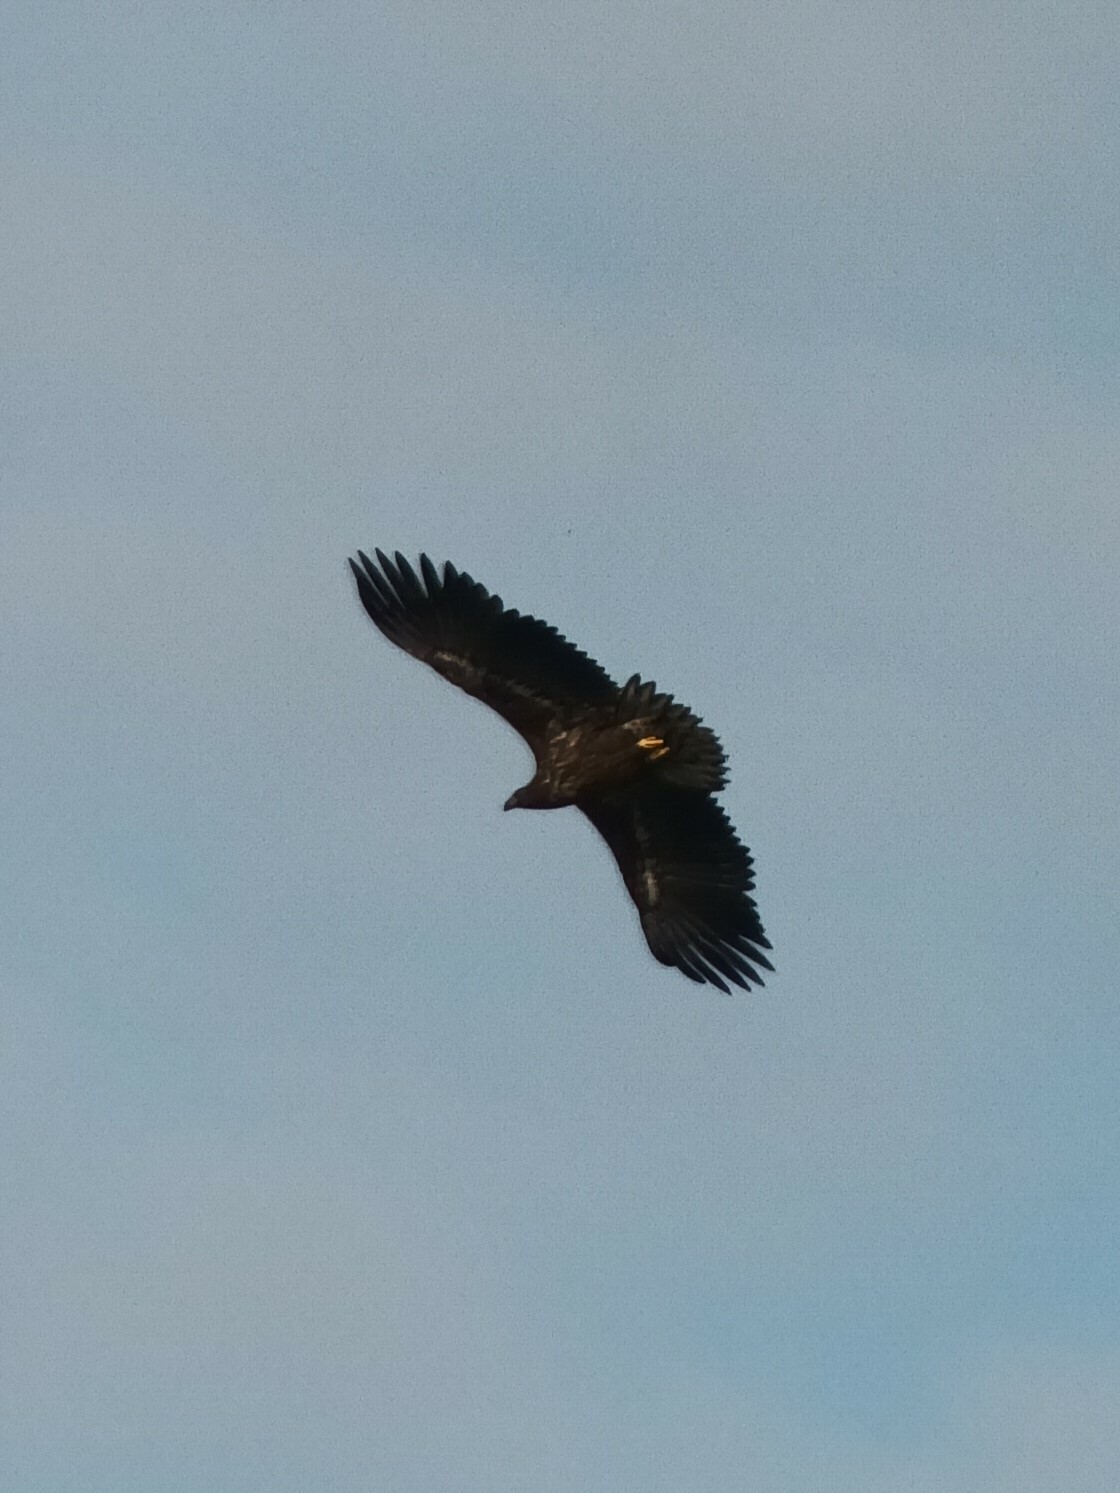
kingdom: Animalia
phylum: Chordata
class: Aves
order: Accipitriformes
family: Accipitridae
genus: Haliaeetus
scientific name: Haliaeetus albicilla
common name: White-tailed eagle
